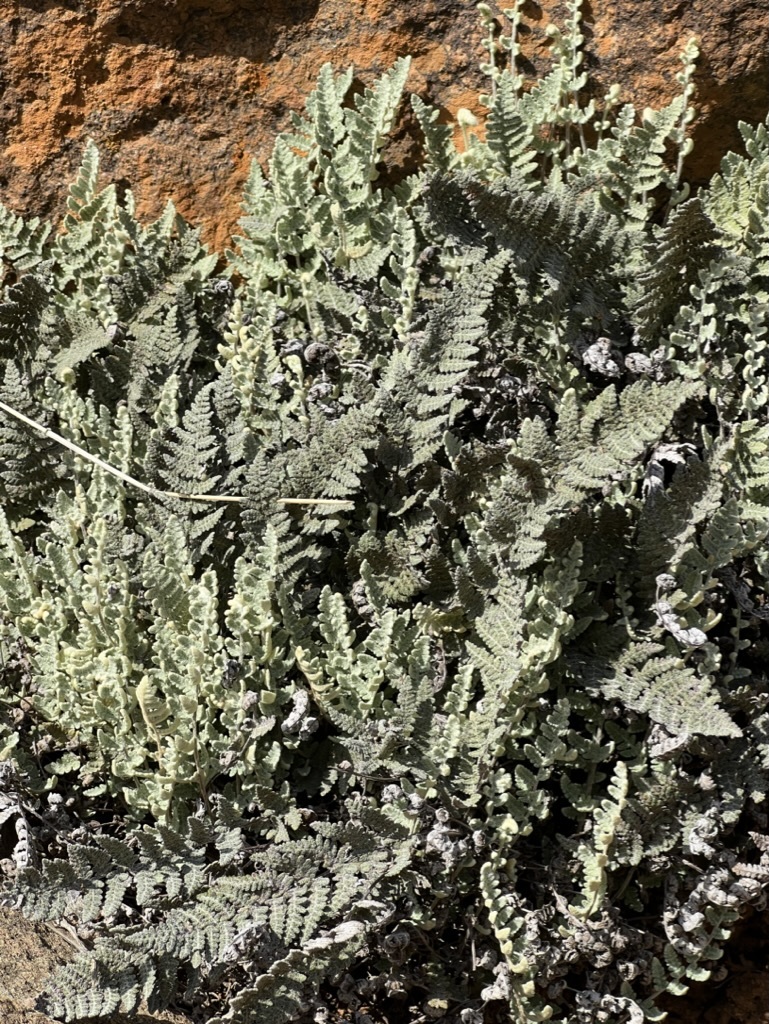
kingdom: Plantae
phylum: Tracheophyta
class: Polypodiopsida
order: Polypodiales
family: Pteridaceae
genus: Myriopteris
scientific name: Myriopteris newberryi
